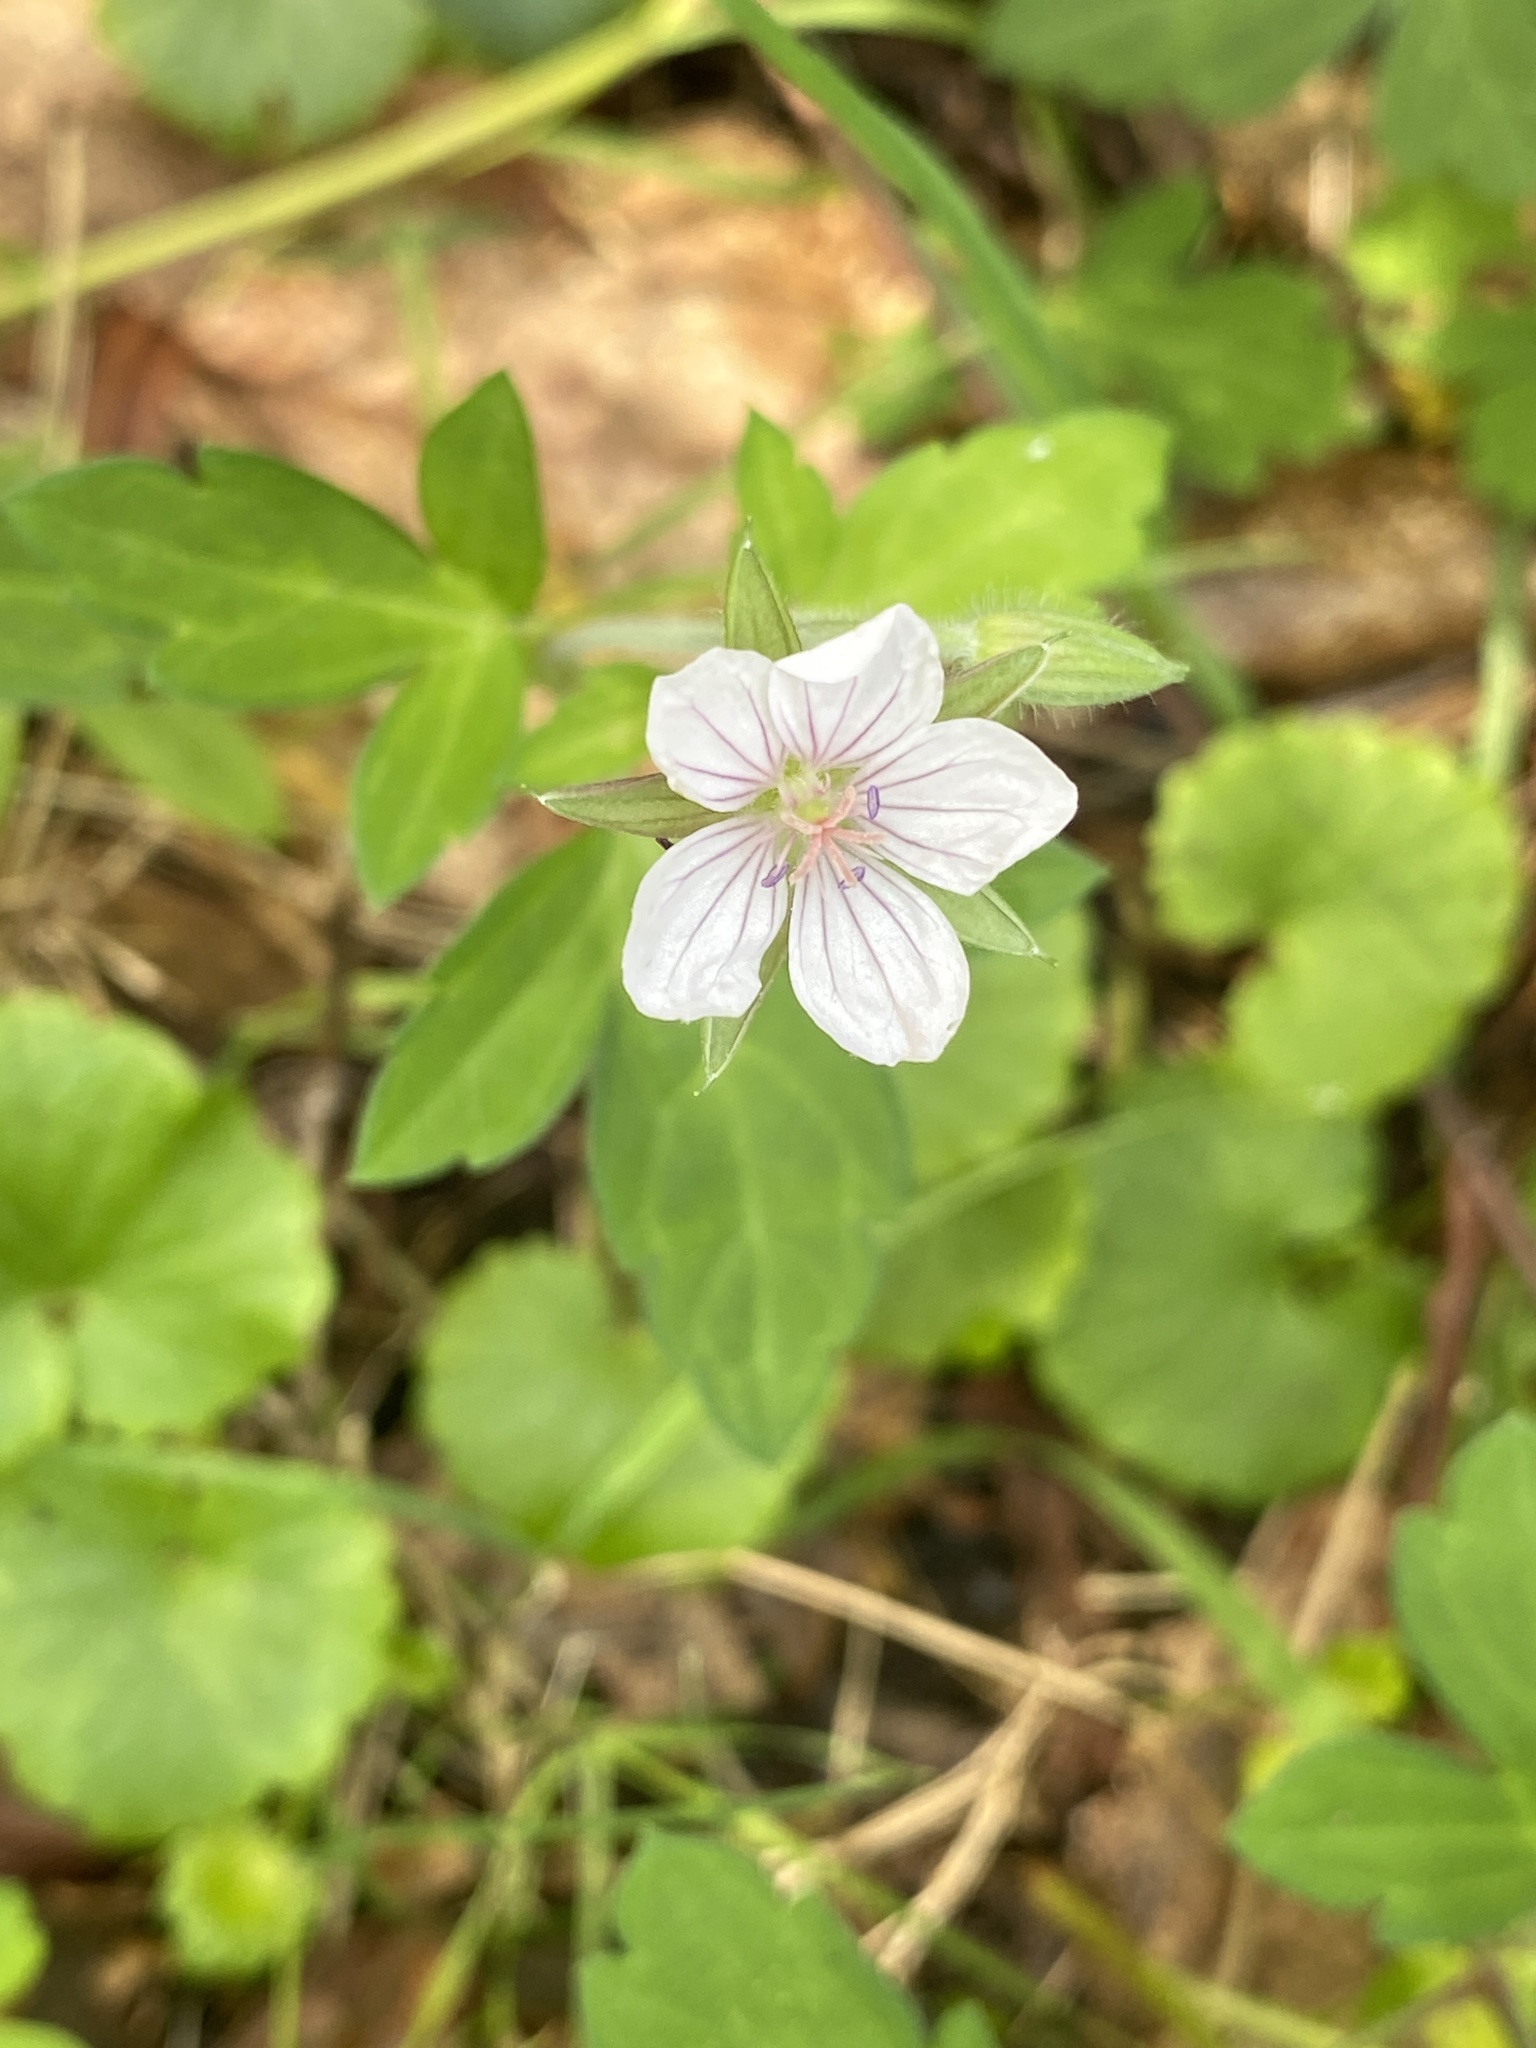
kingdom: Plantae
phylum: Tracheophyta
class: Magnoliopsida
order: Geraniales
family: Geraniaceae
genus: Geranium
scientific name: Geranium thunbergii
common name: Dewdrop crane's-bill
